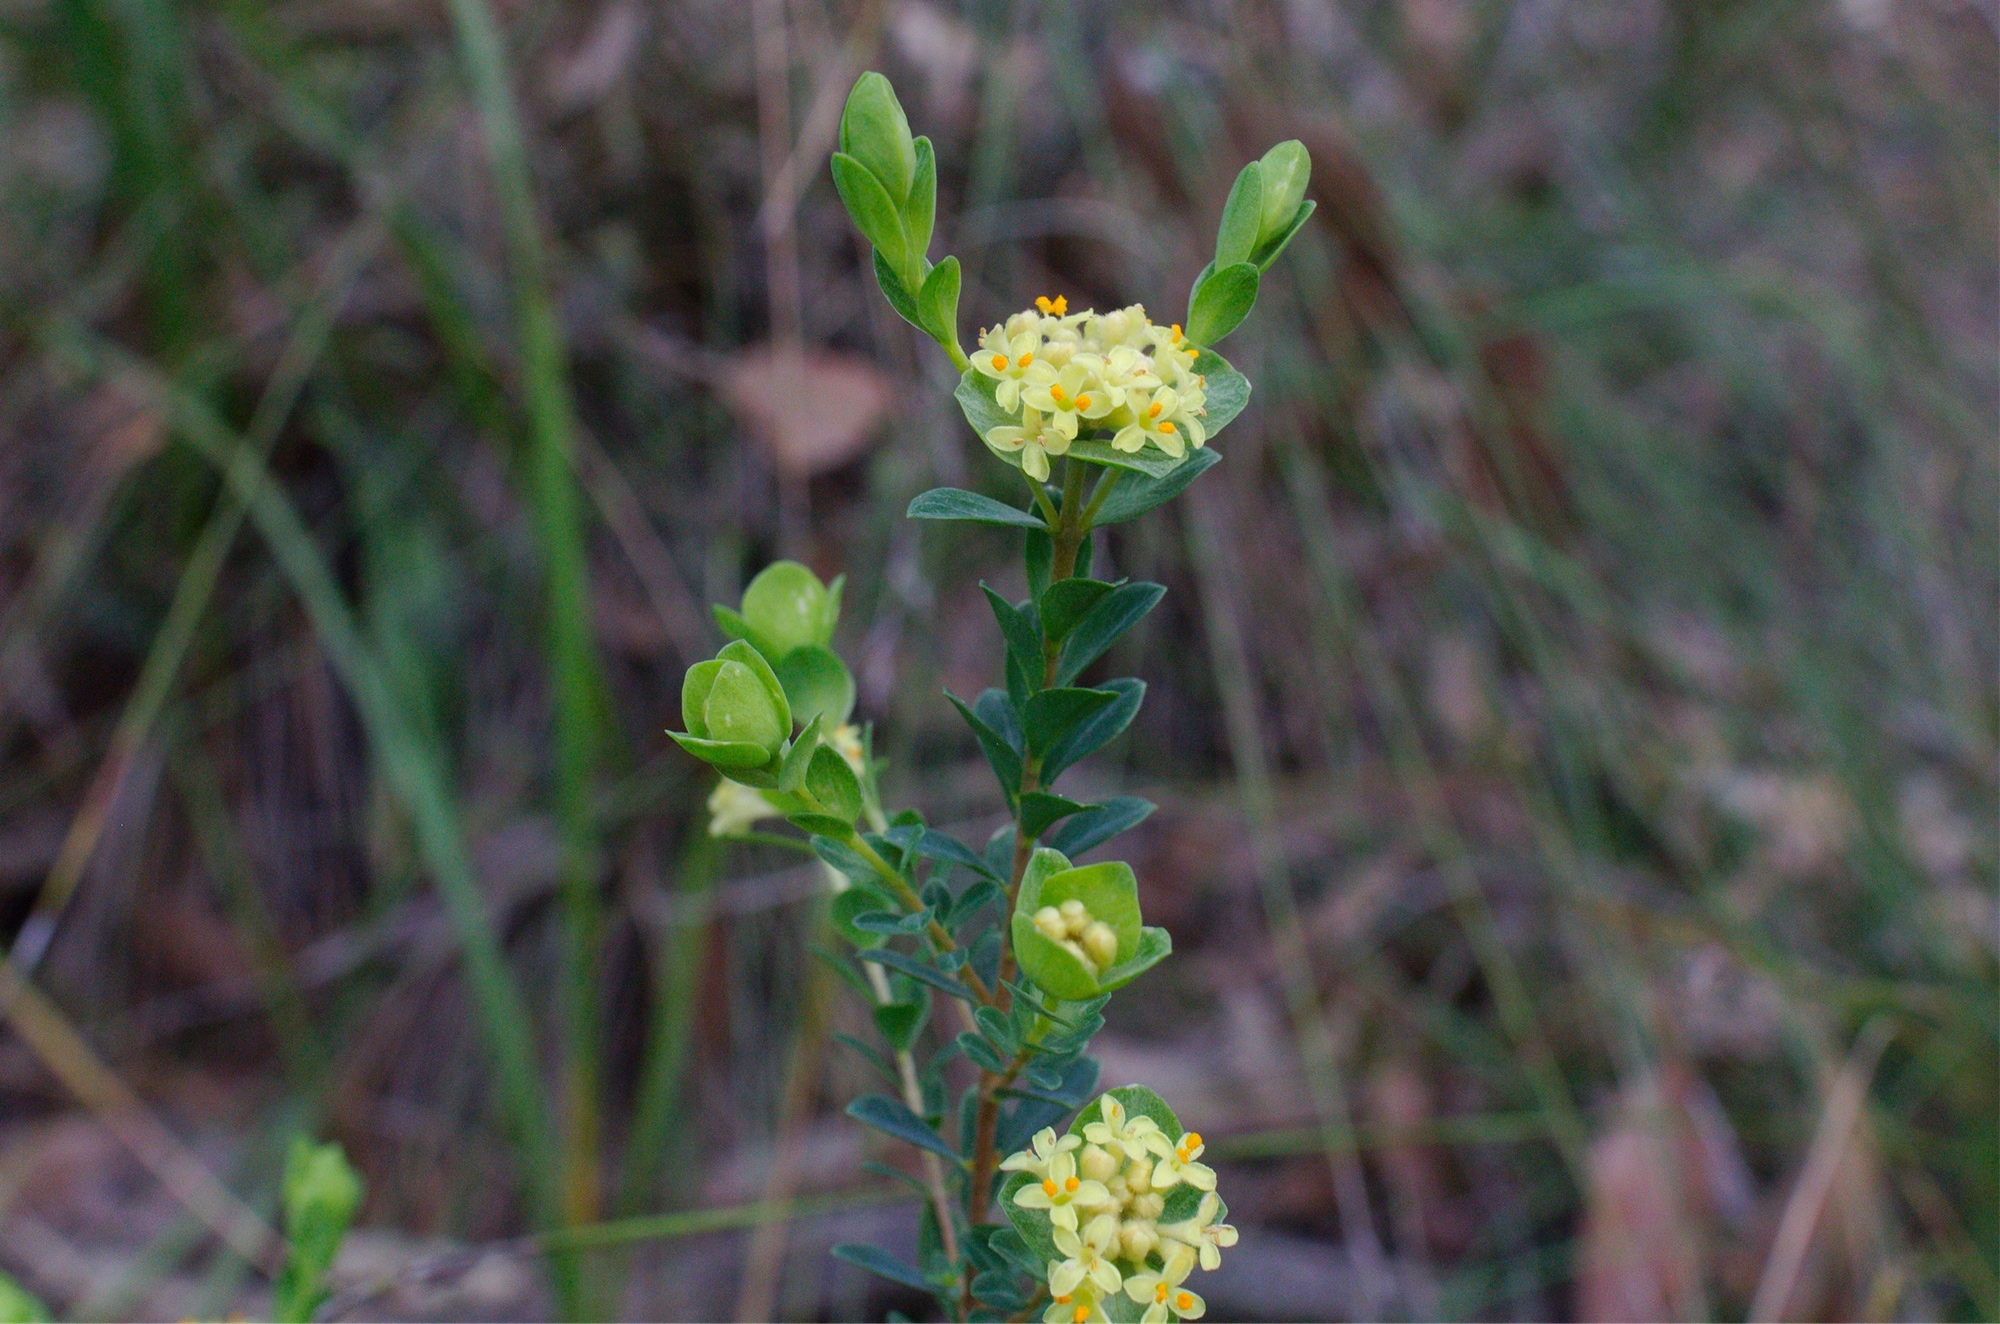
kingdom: Plantae
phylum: Tracheophyta
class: Magnoliopsida
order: Malvales
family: Thymelaeaceae
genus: Pimelea
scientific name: Pimelea flava
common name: Yellow riceflower
